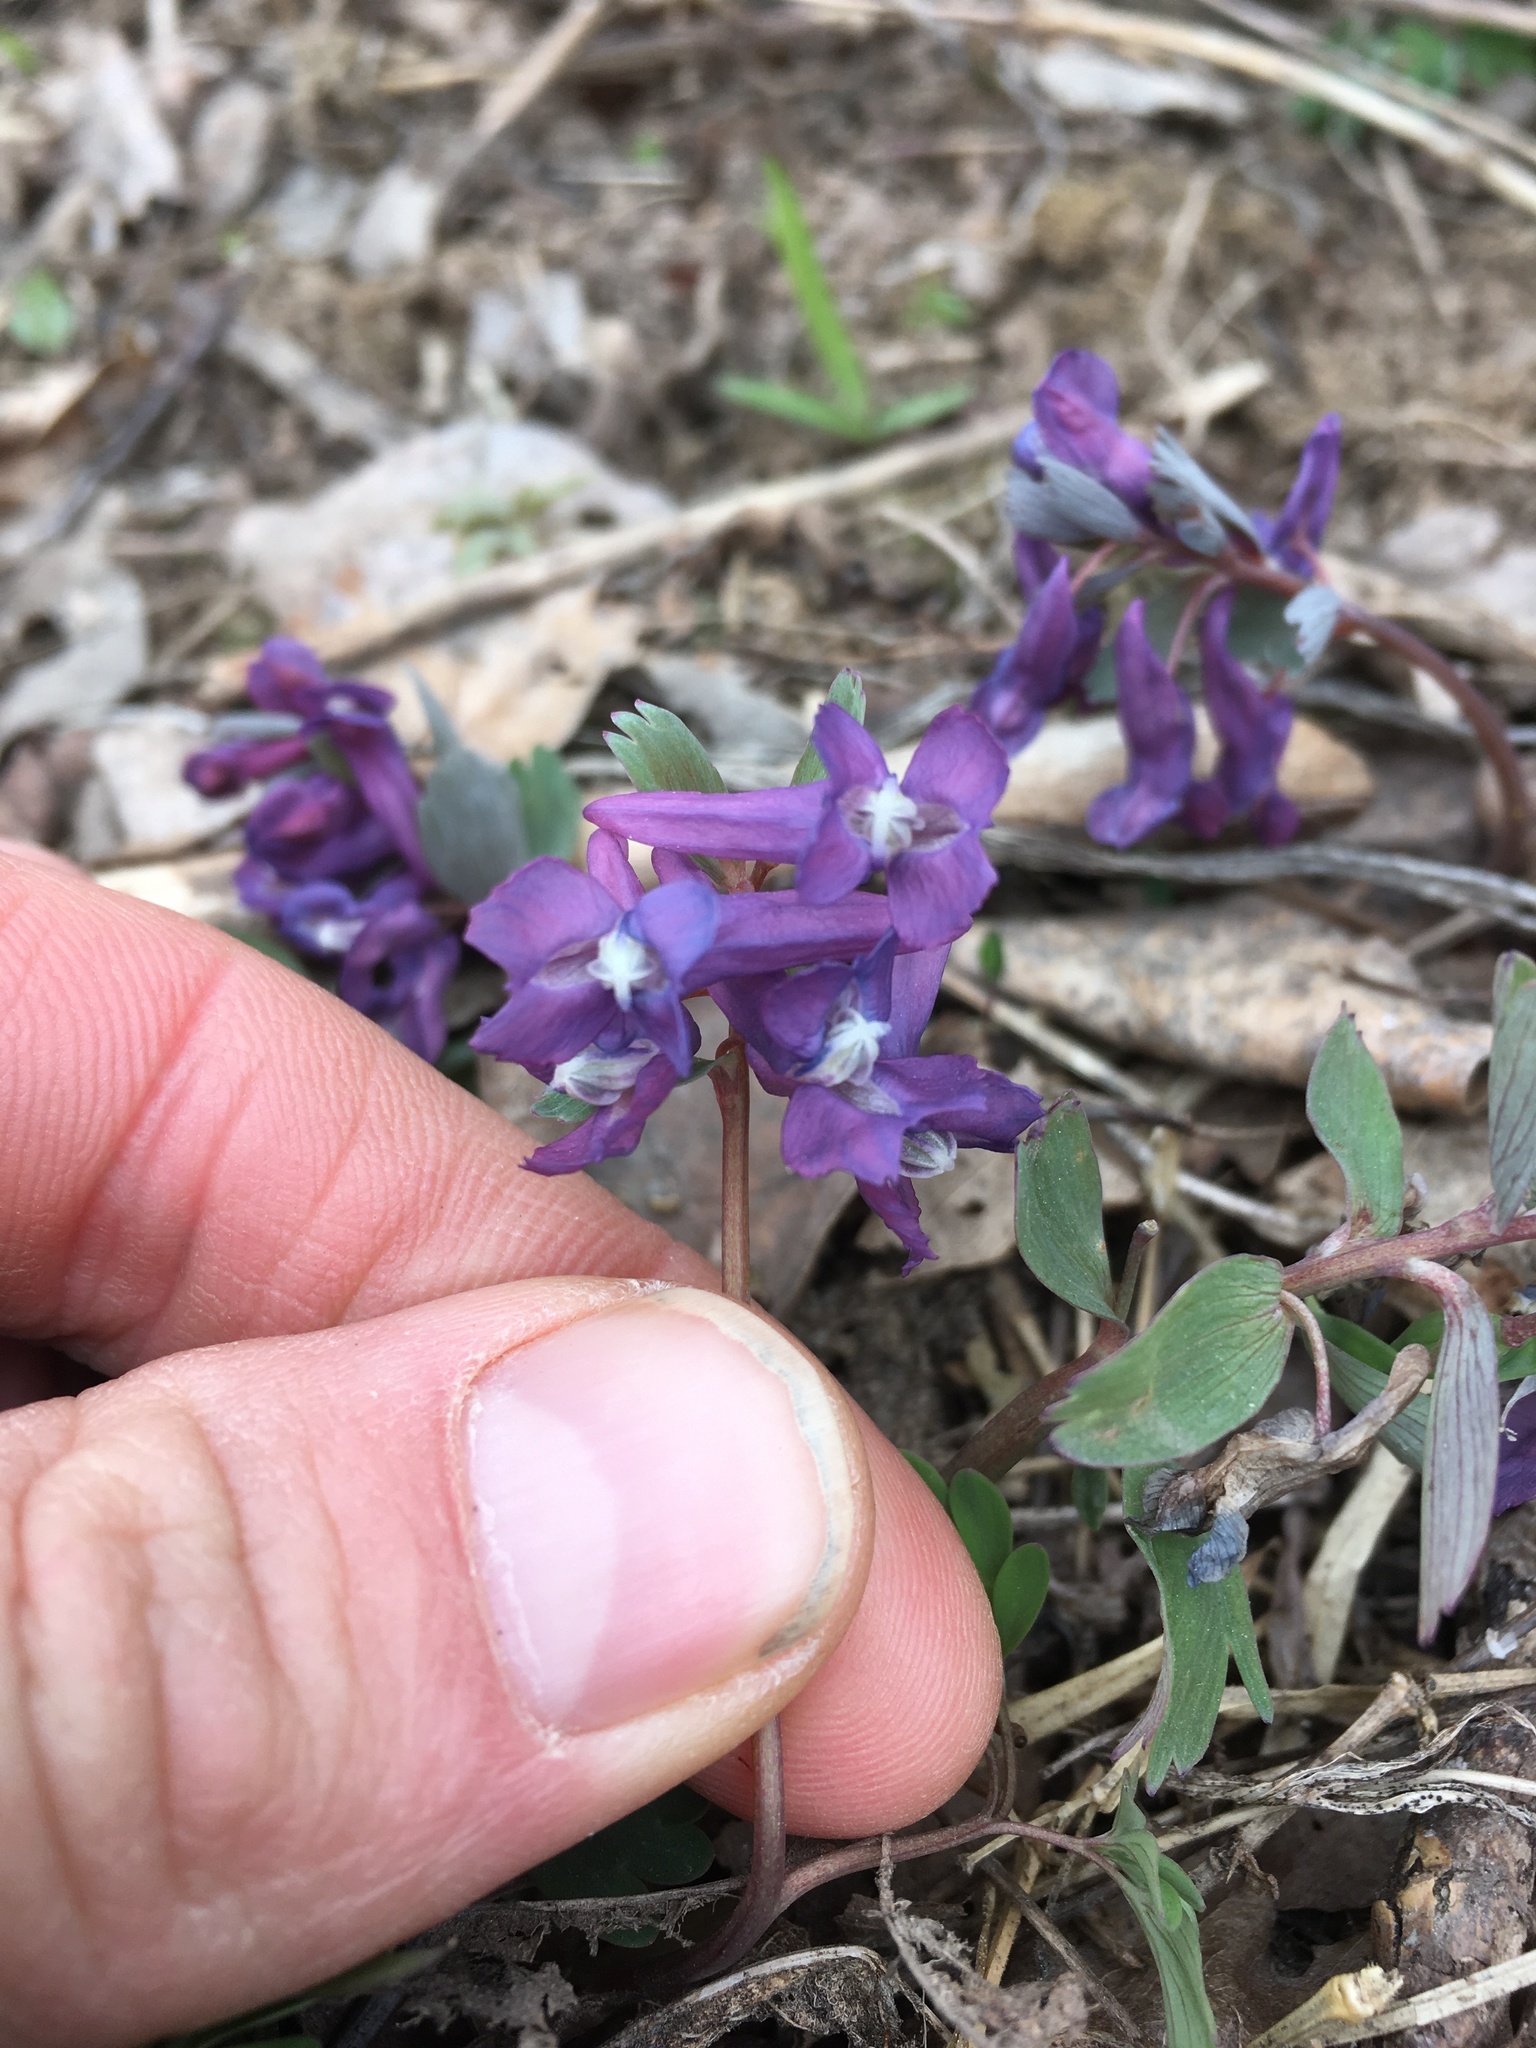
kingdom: Plantae
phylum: Tracheophyta
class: Magnoliopsida
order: Ranunculales
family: Papaveraceae
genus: Corydalis
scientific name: Corydalis solida
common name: Bird-in-a-bush
